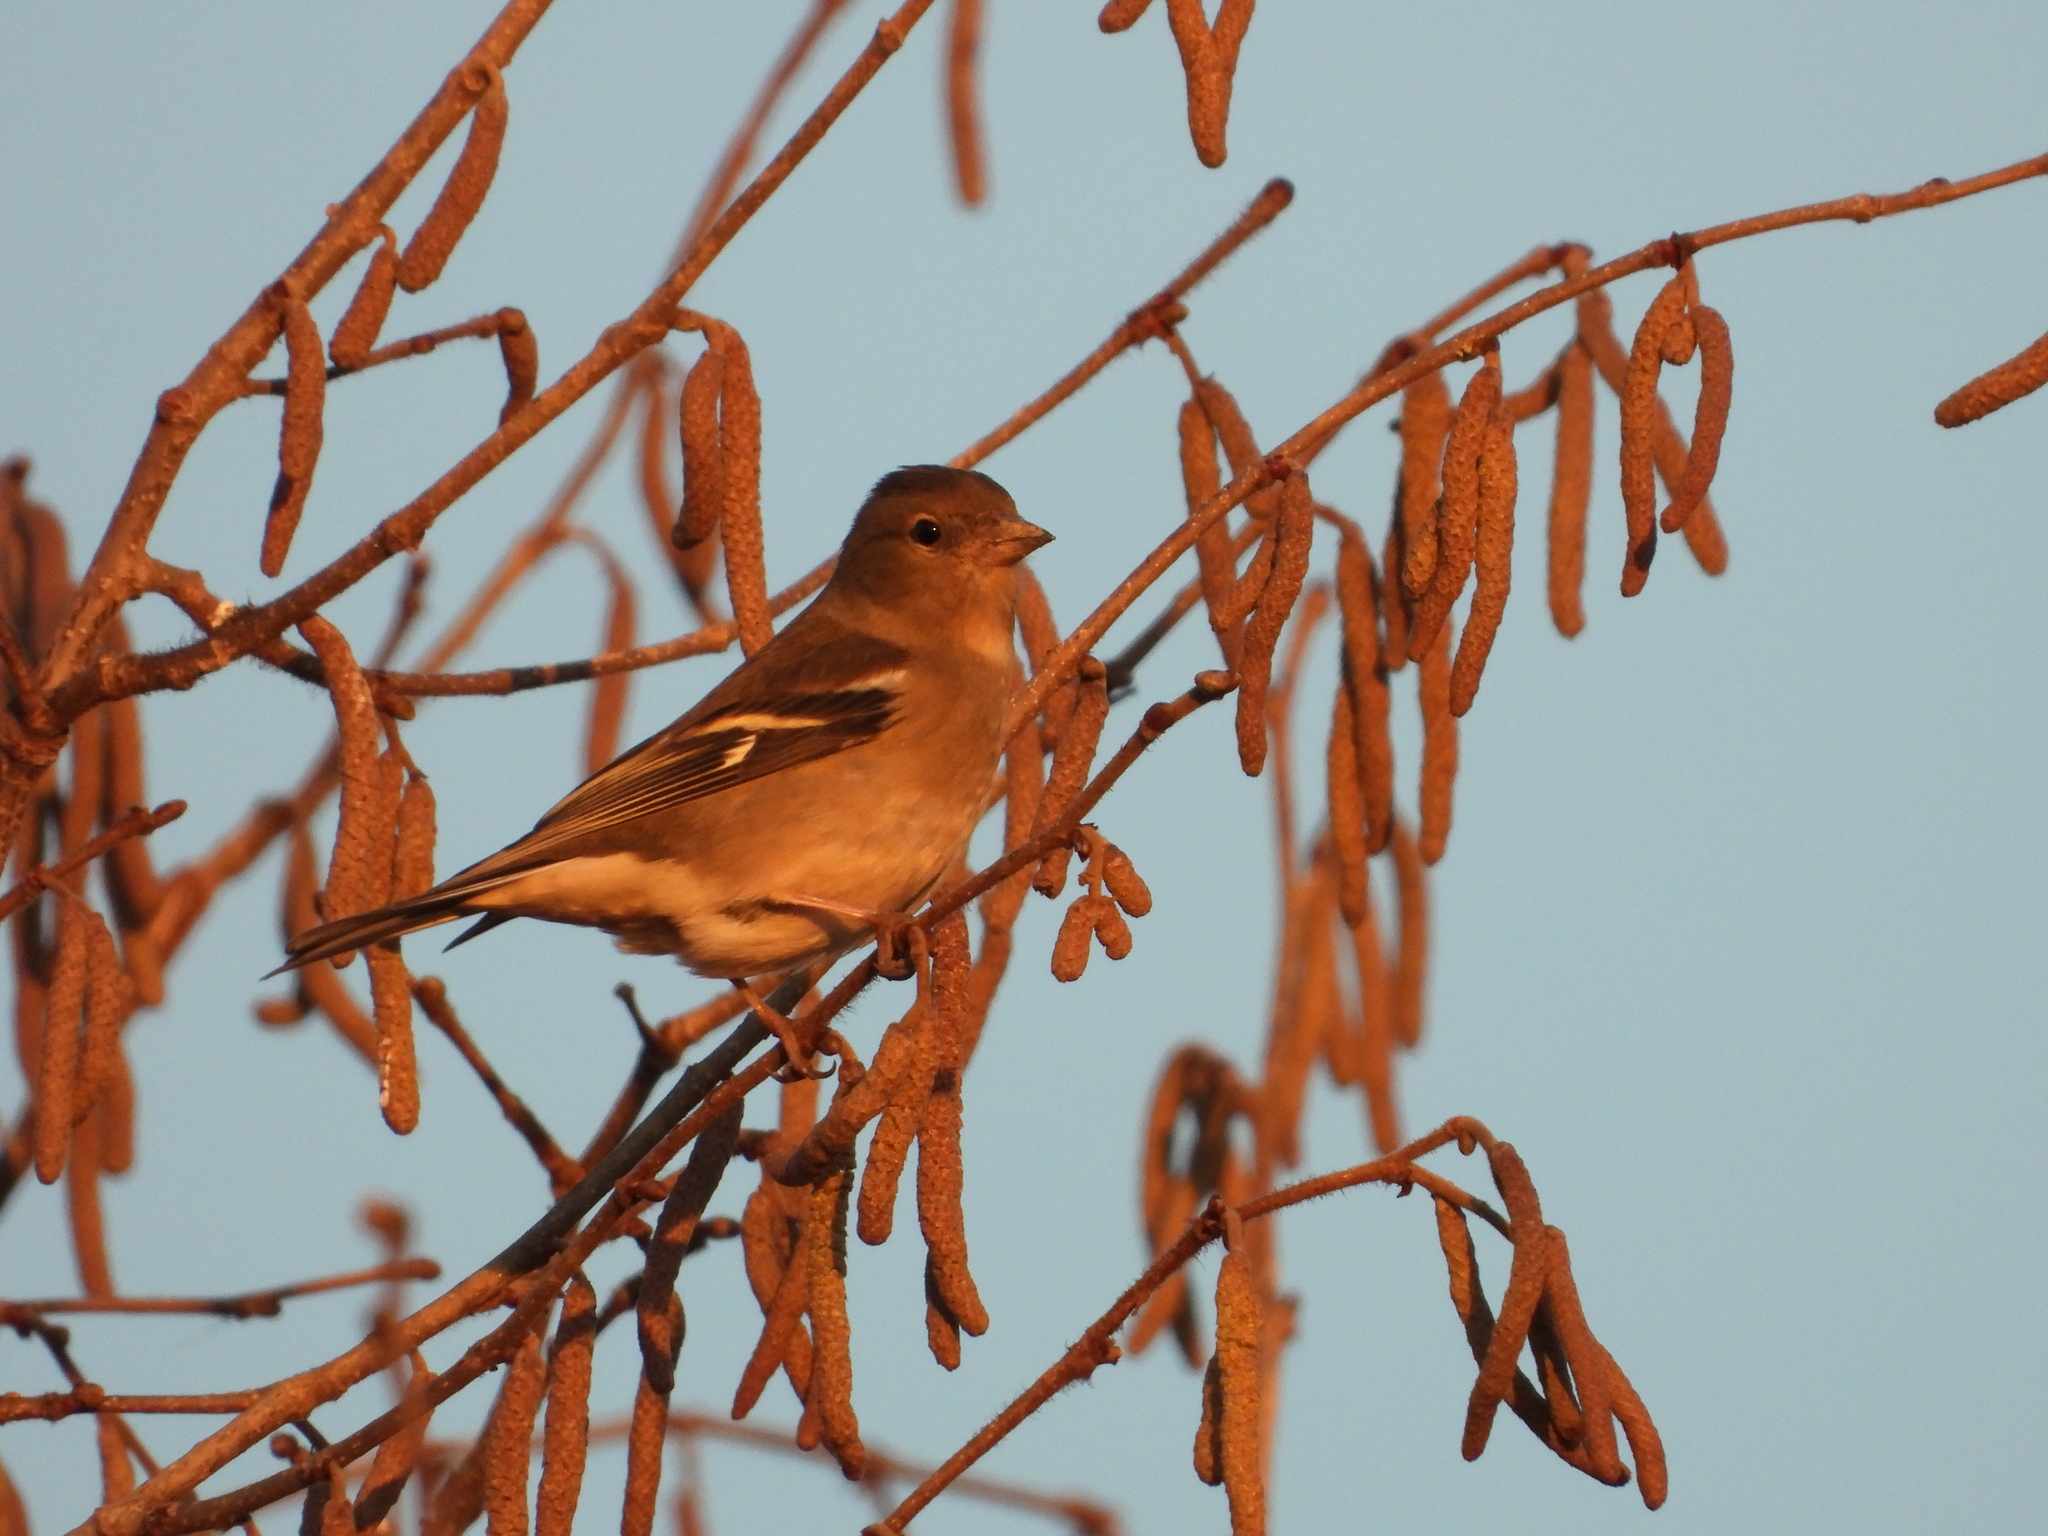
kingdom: Animalia
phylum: Chordata
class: Aves
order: Passeriformes
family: Fringillidae
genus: Fringilla
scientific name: Fringilla coelebs
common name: Common chaffinch
